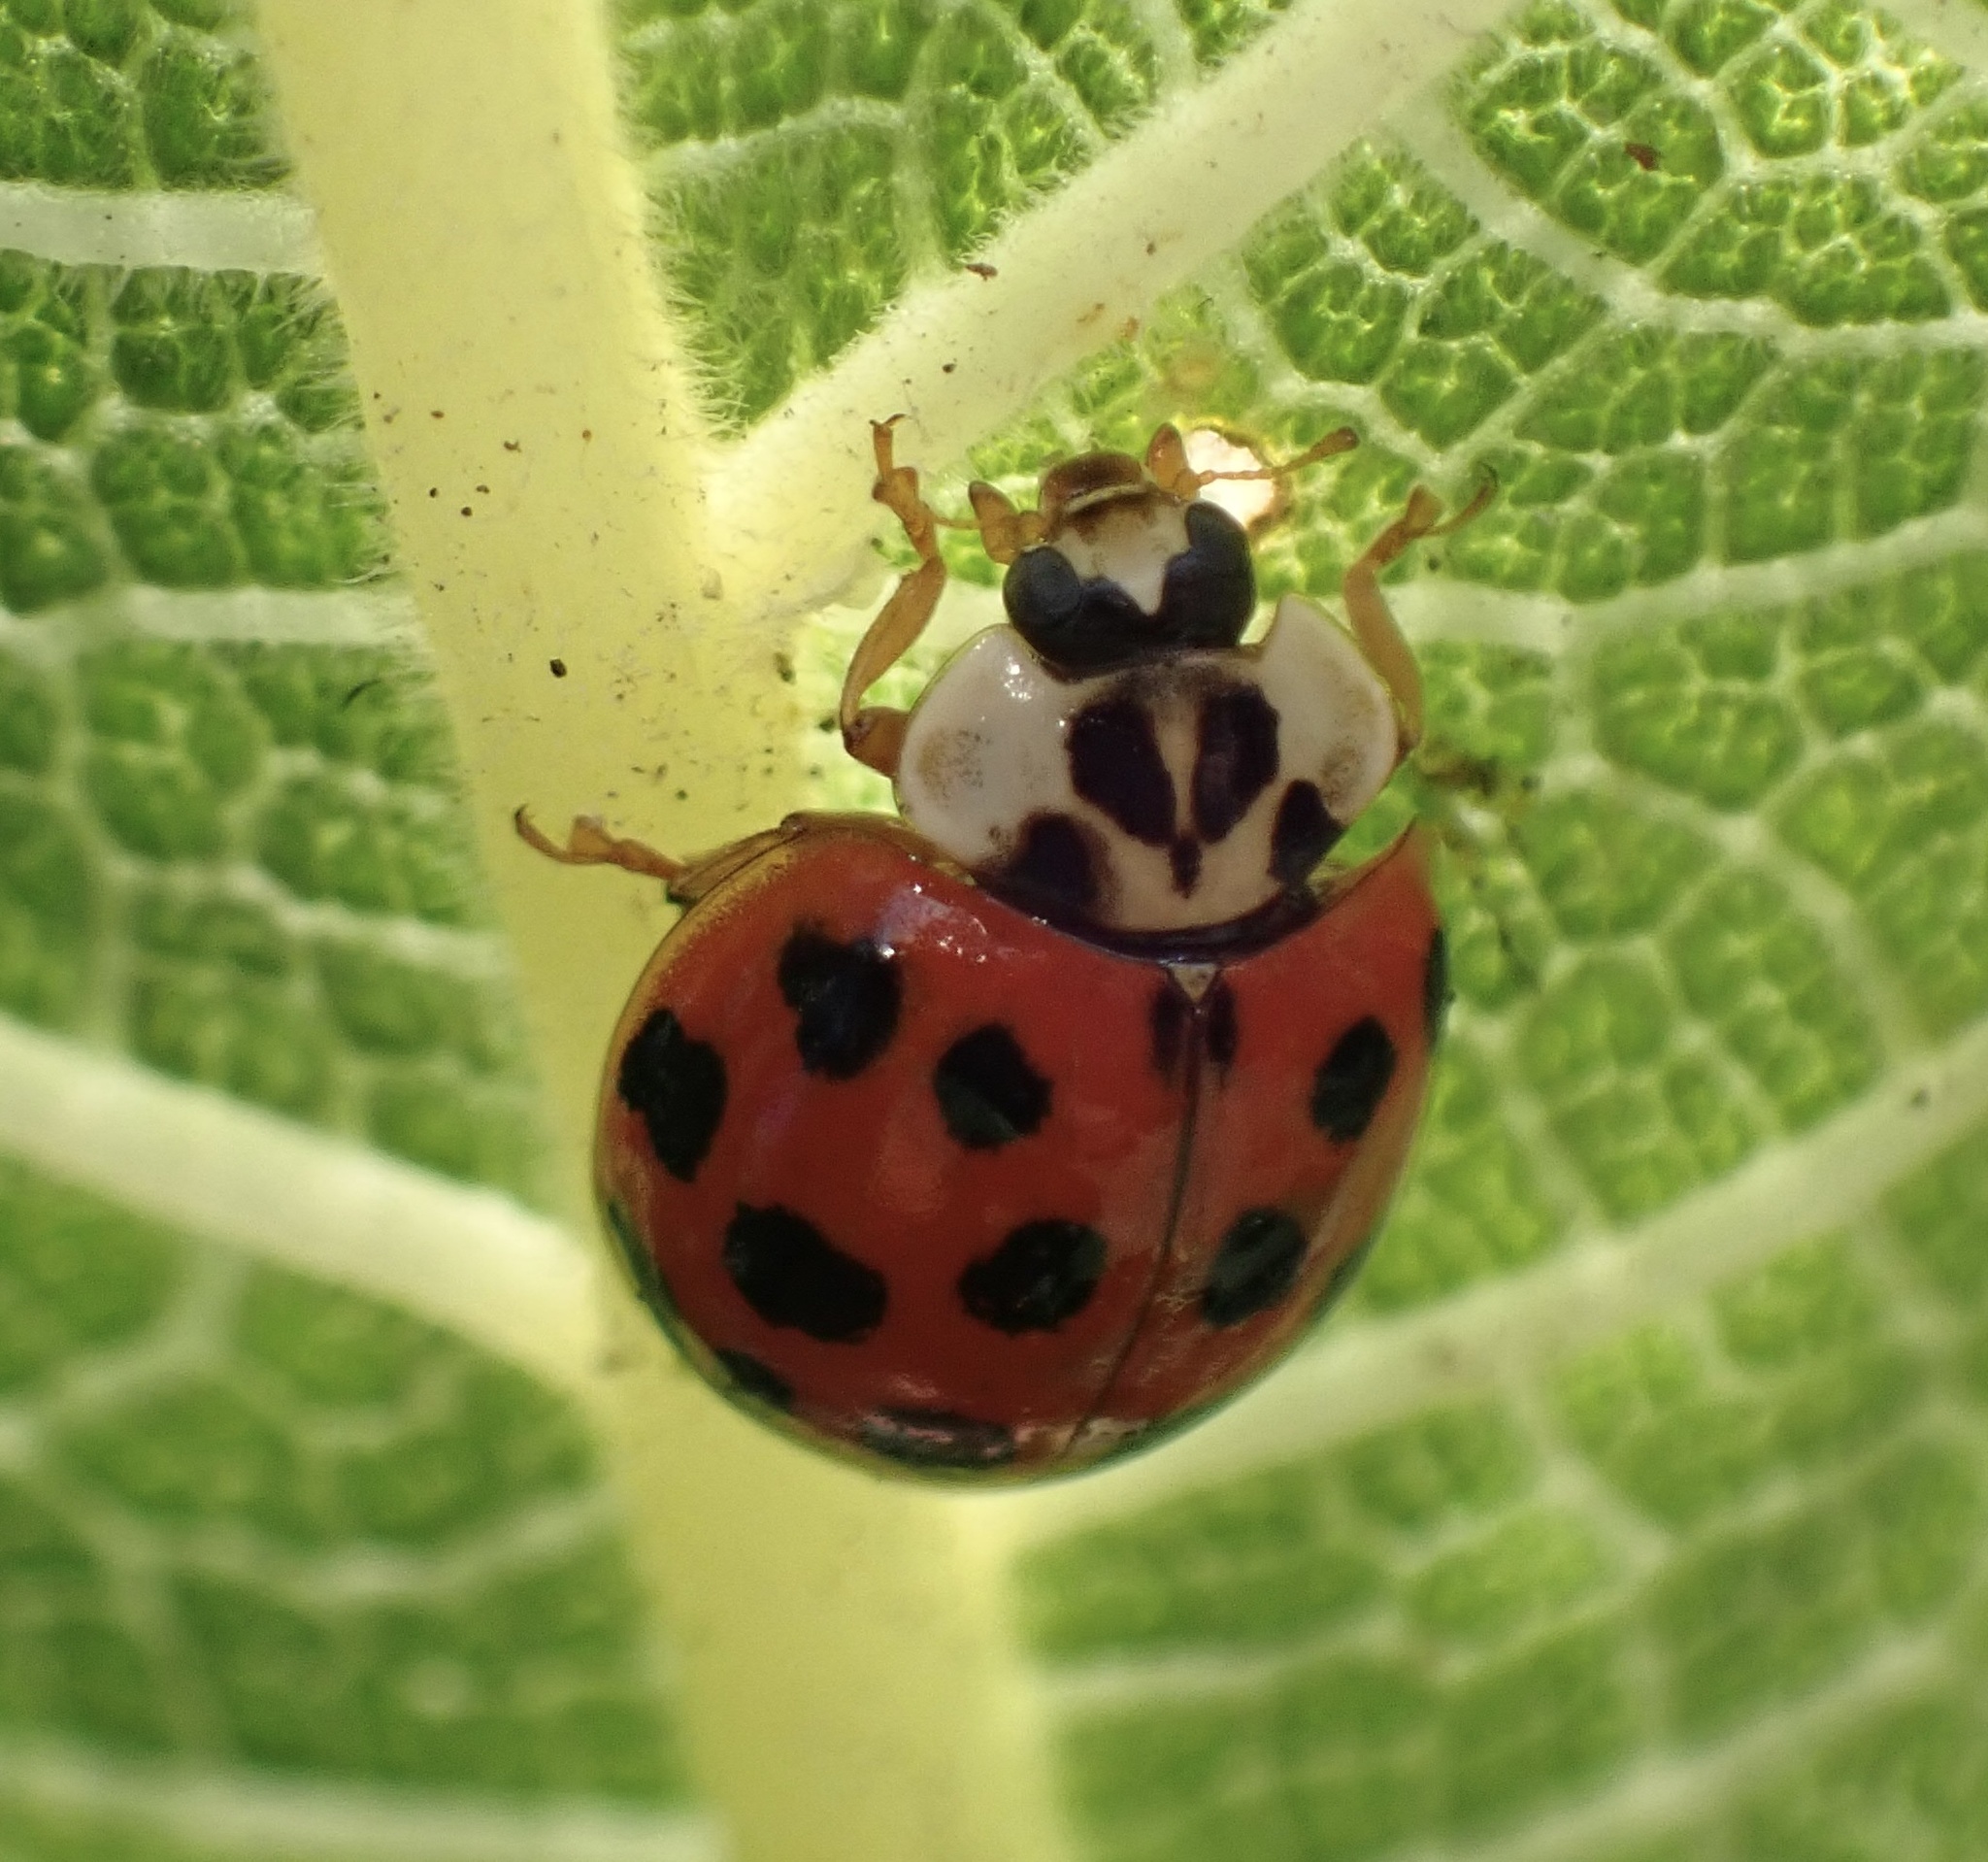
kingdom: Animalia
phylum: Arthropoda
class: Insecta
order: Coleoptera
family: Coccinellidae
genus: Harmonia
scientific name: Harmonia axyridis
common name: Harlequin ladybird
